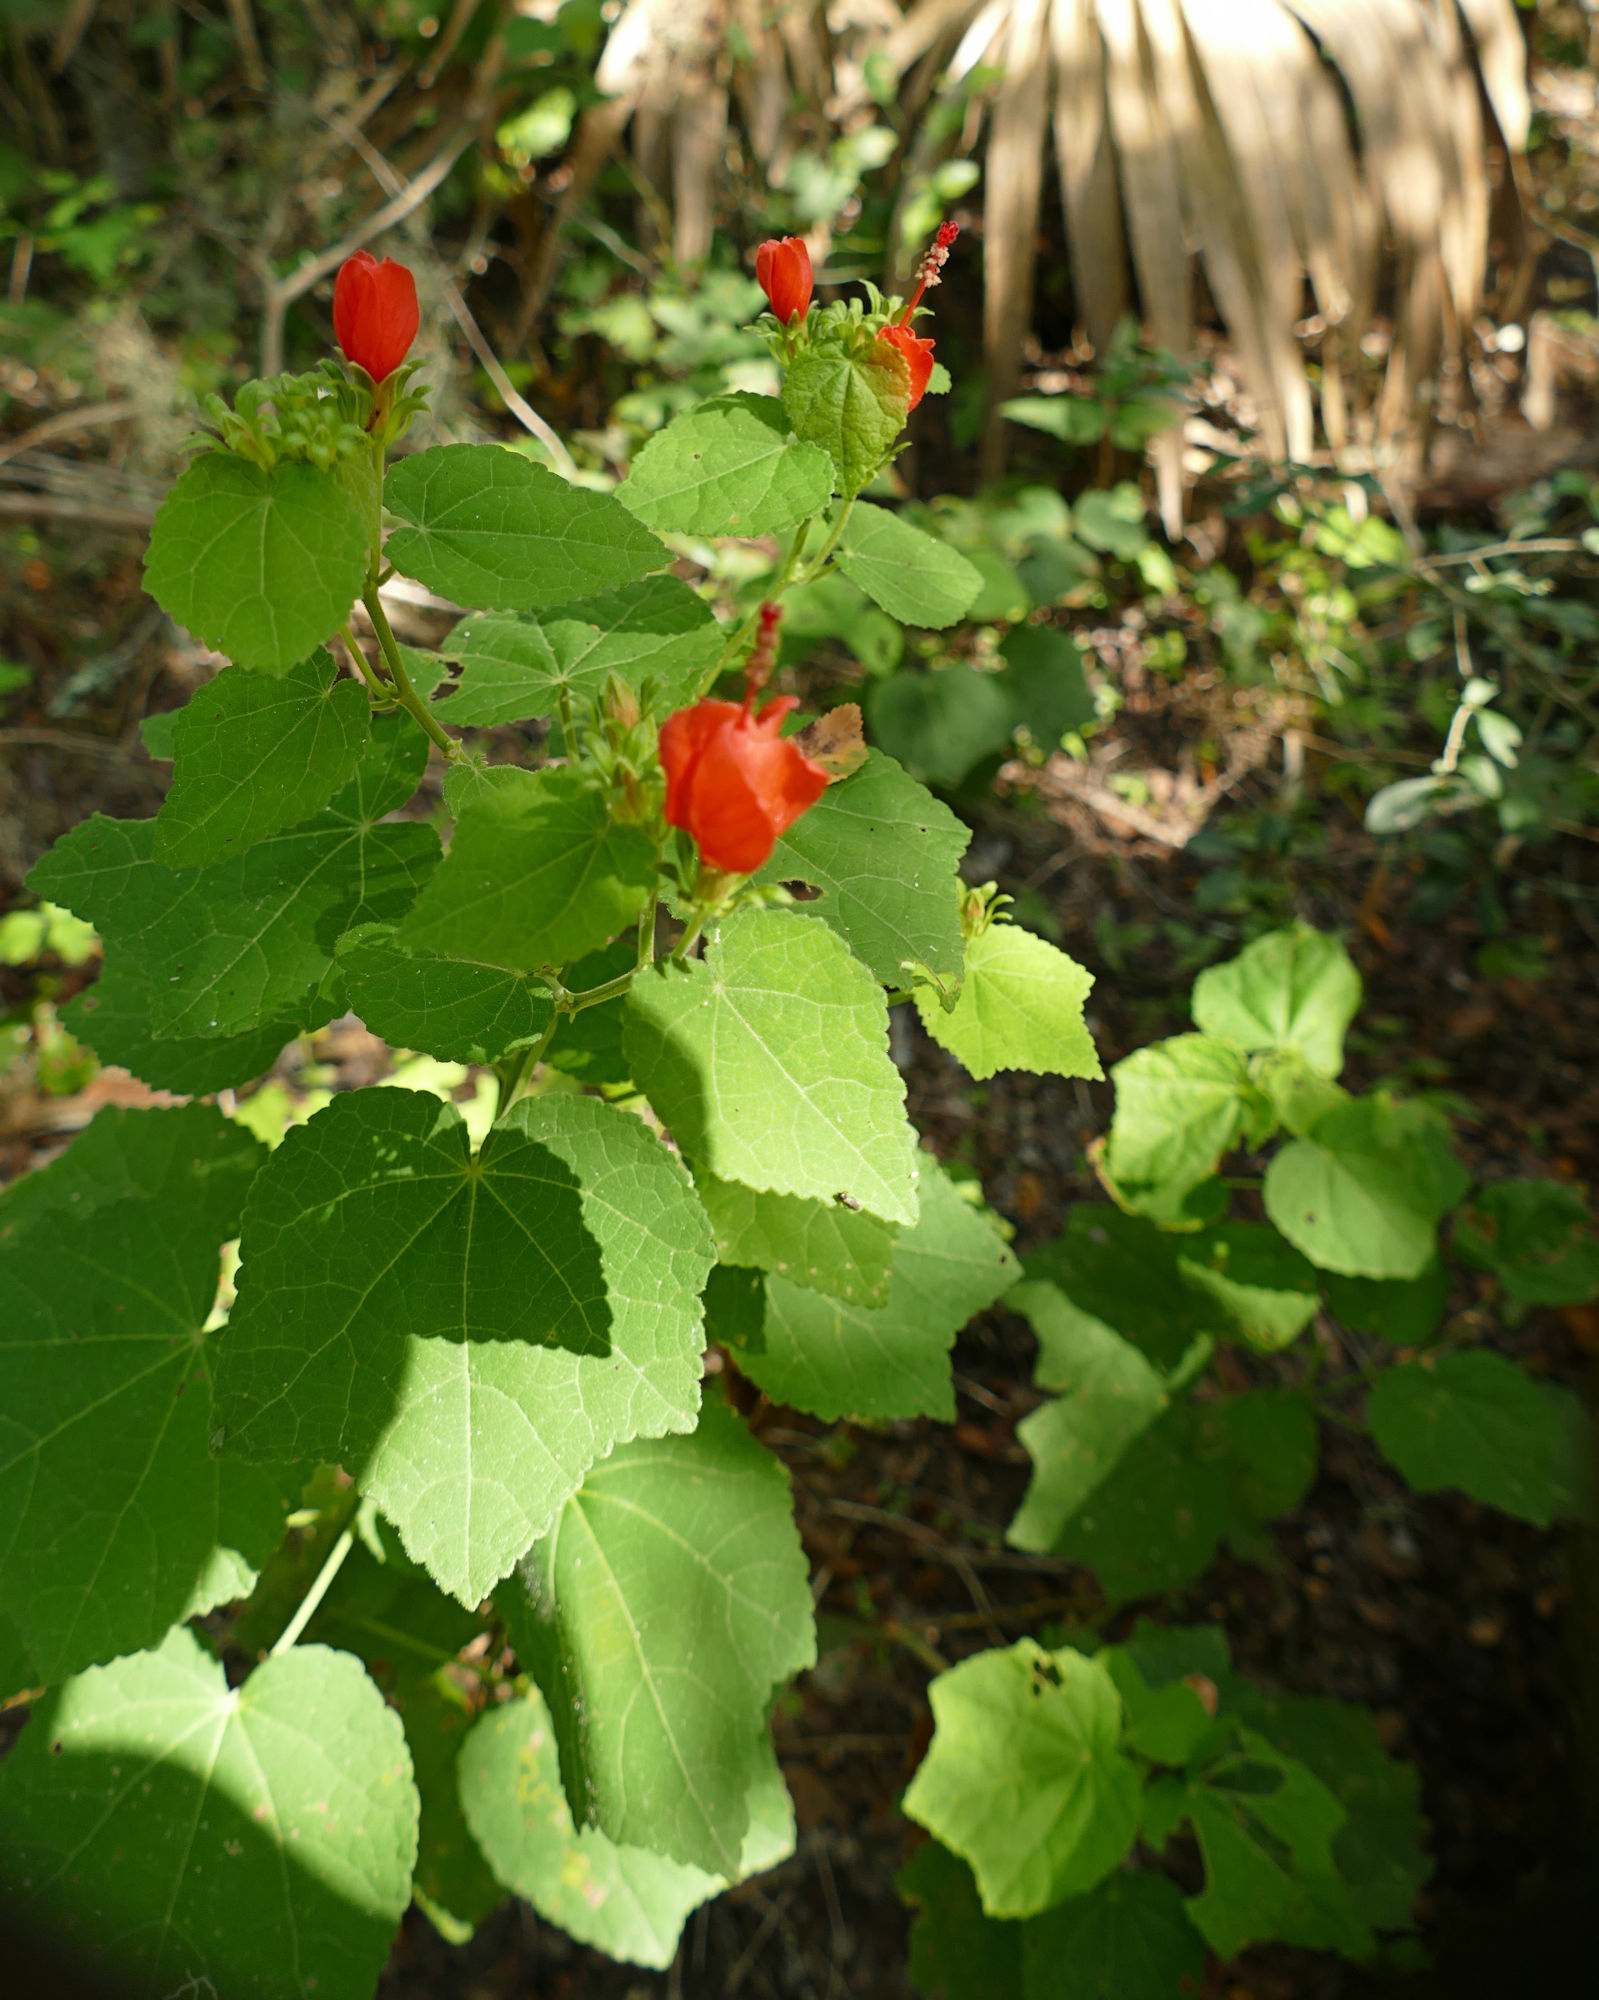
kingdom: Plantae
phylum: Tracheophyta
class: Magnoliopsida
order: Malvales
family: Malvaceae
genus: Malvaviscus
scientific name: Malvaviscus arboreus
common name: Wax mallow
